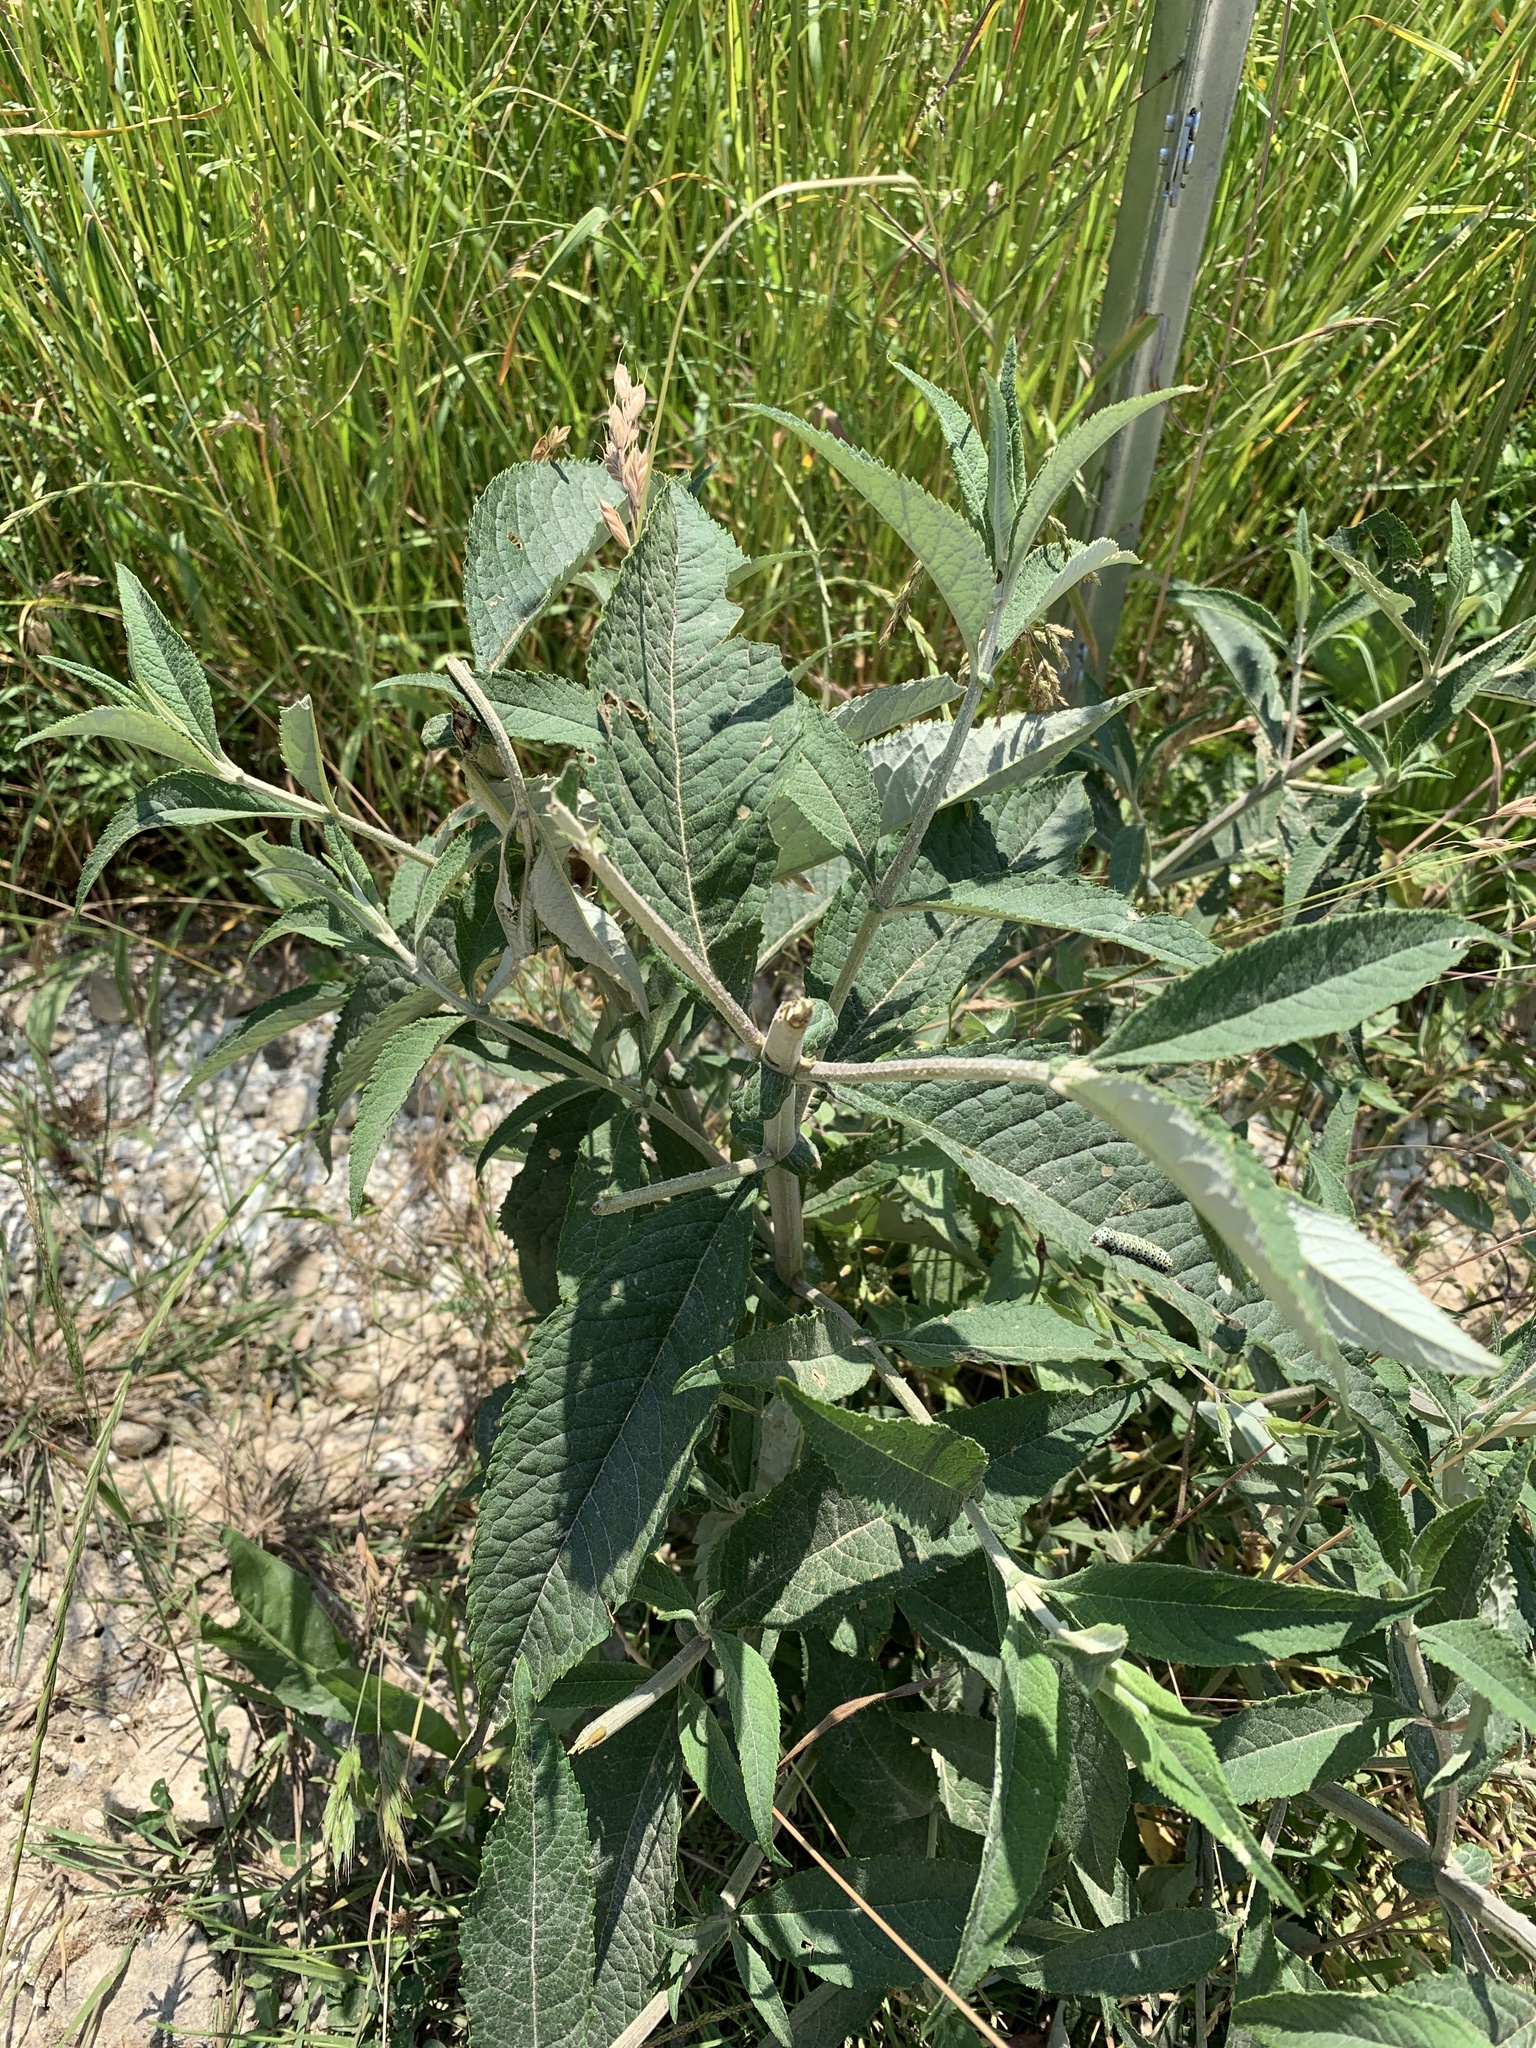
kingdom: Plantae
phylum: Tracheophyta
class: Magnoliopsida
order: Lamiales
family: Scrophulariaceae
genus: Buddleja
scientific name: Buddleja davidii
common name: Butterfly-bush
